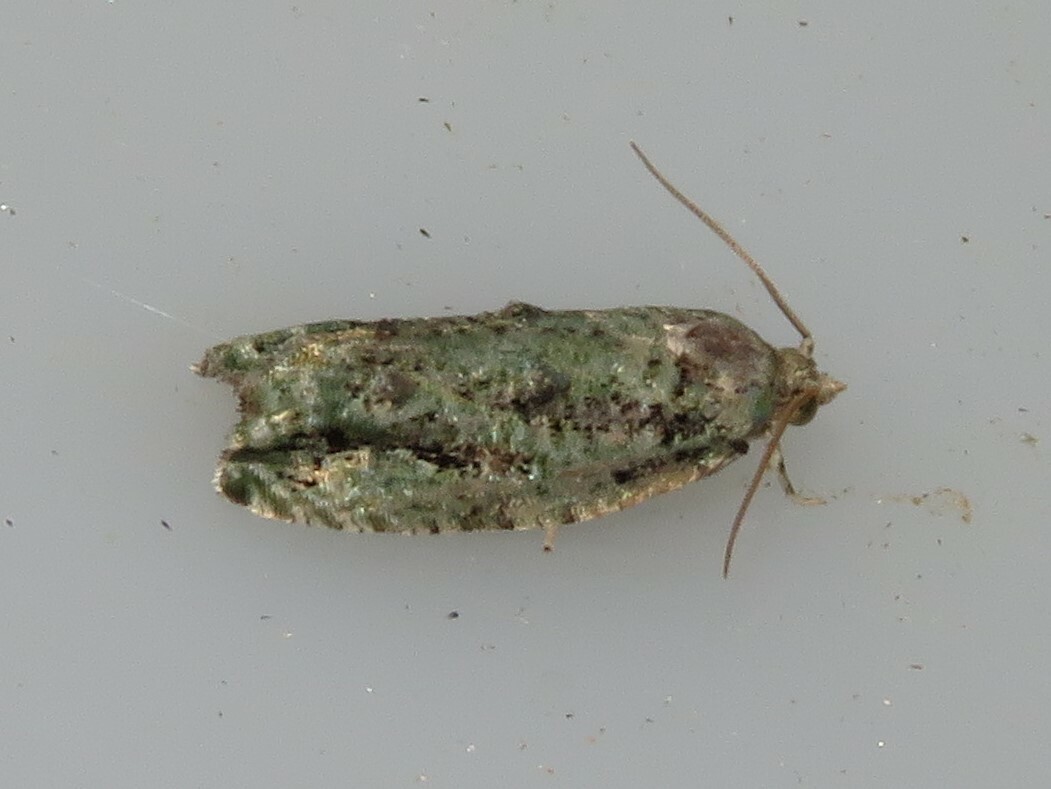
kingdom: Animalia
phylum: Arthropoda
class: Insecta
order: Lepidoptera
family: Tortricidae
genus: Proteoteras
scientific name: Proteoteras moffatiana
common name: Maple bud borer moth
